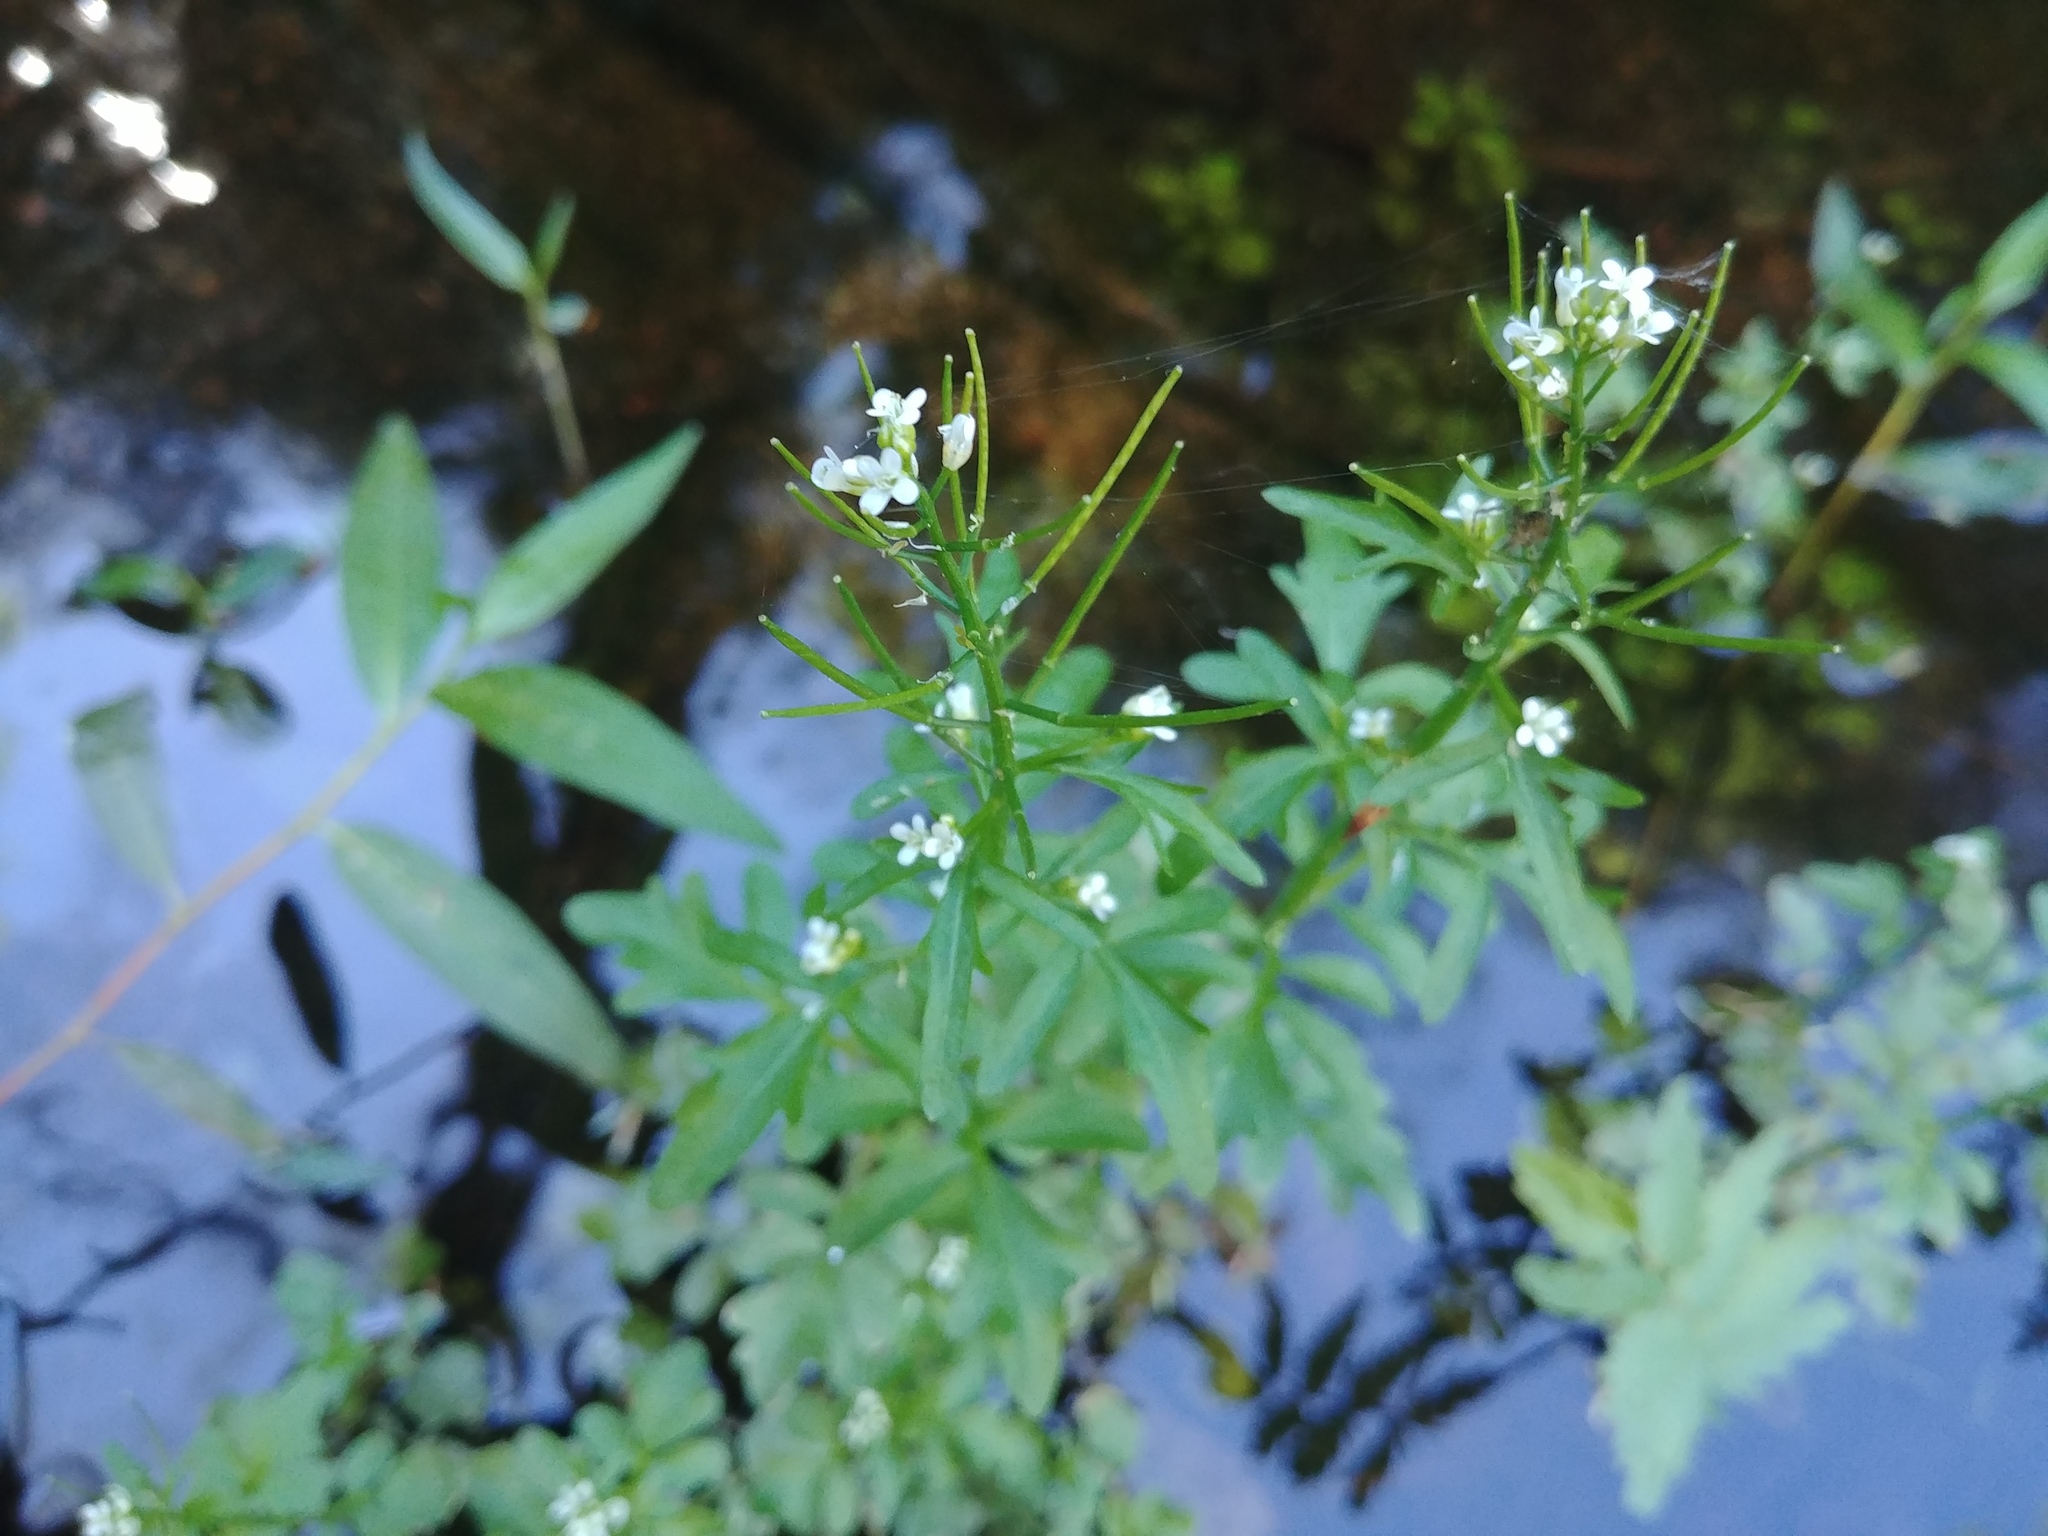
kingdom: Plantae
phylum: Tracheophyta
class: Magnoliopsida
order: Brassicales
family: Brassicaceae
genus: Cardamine
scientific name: Cardamine pensylvanica
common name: Pennsylvania bittercress
